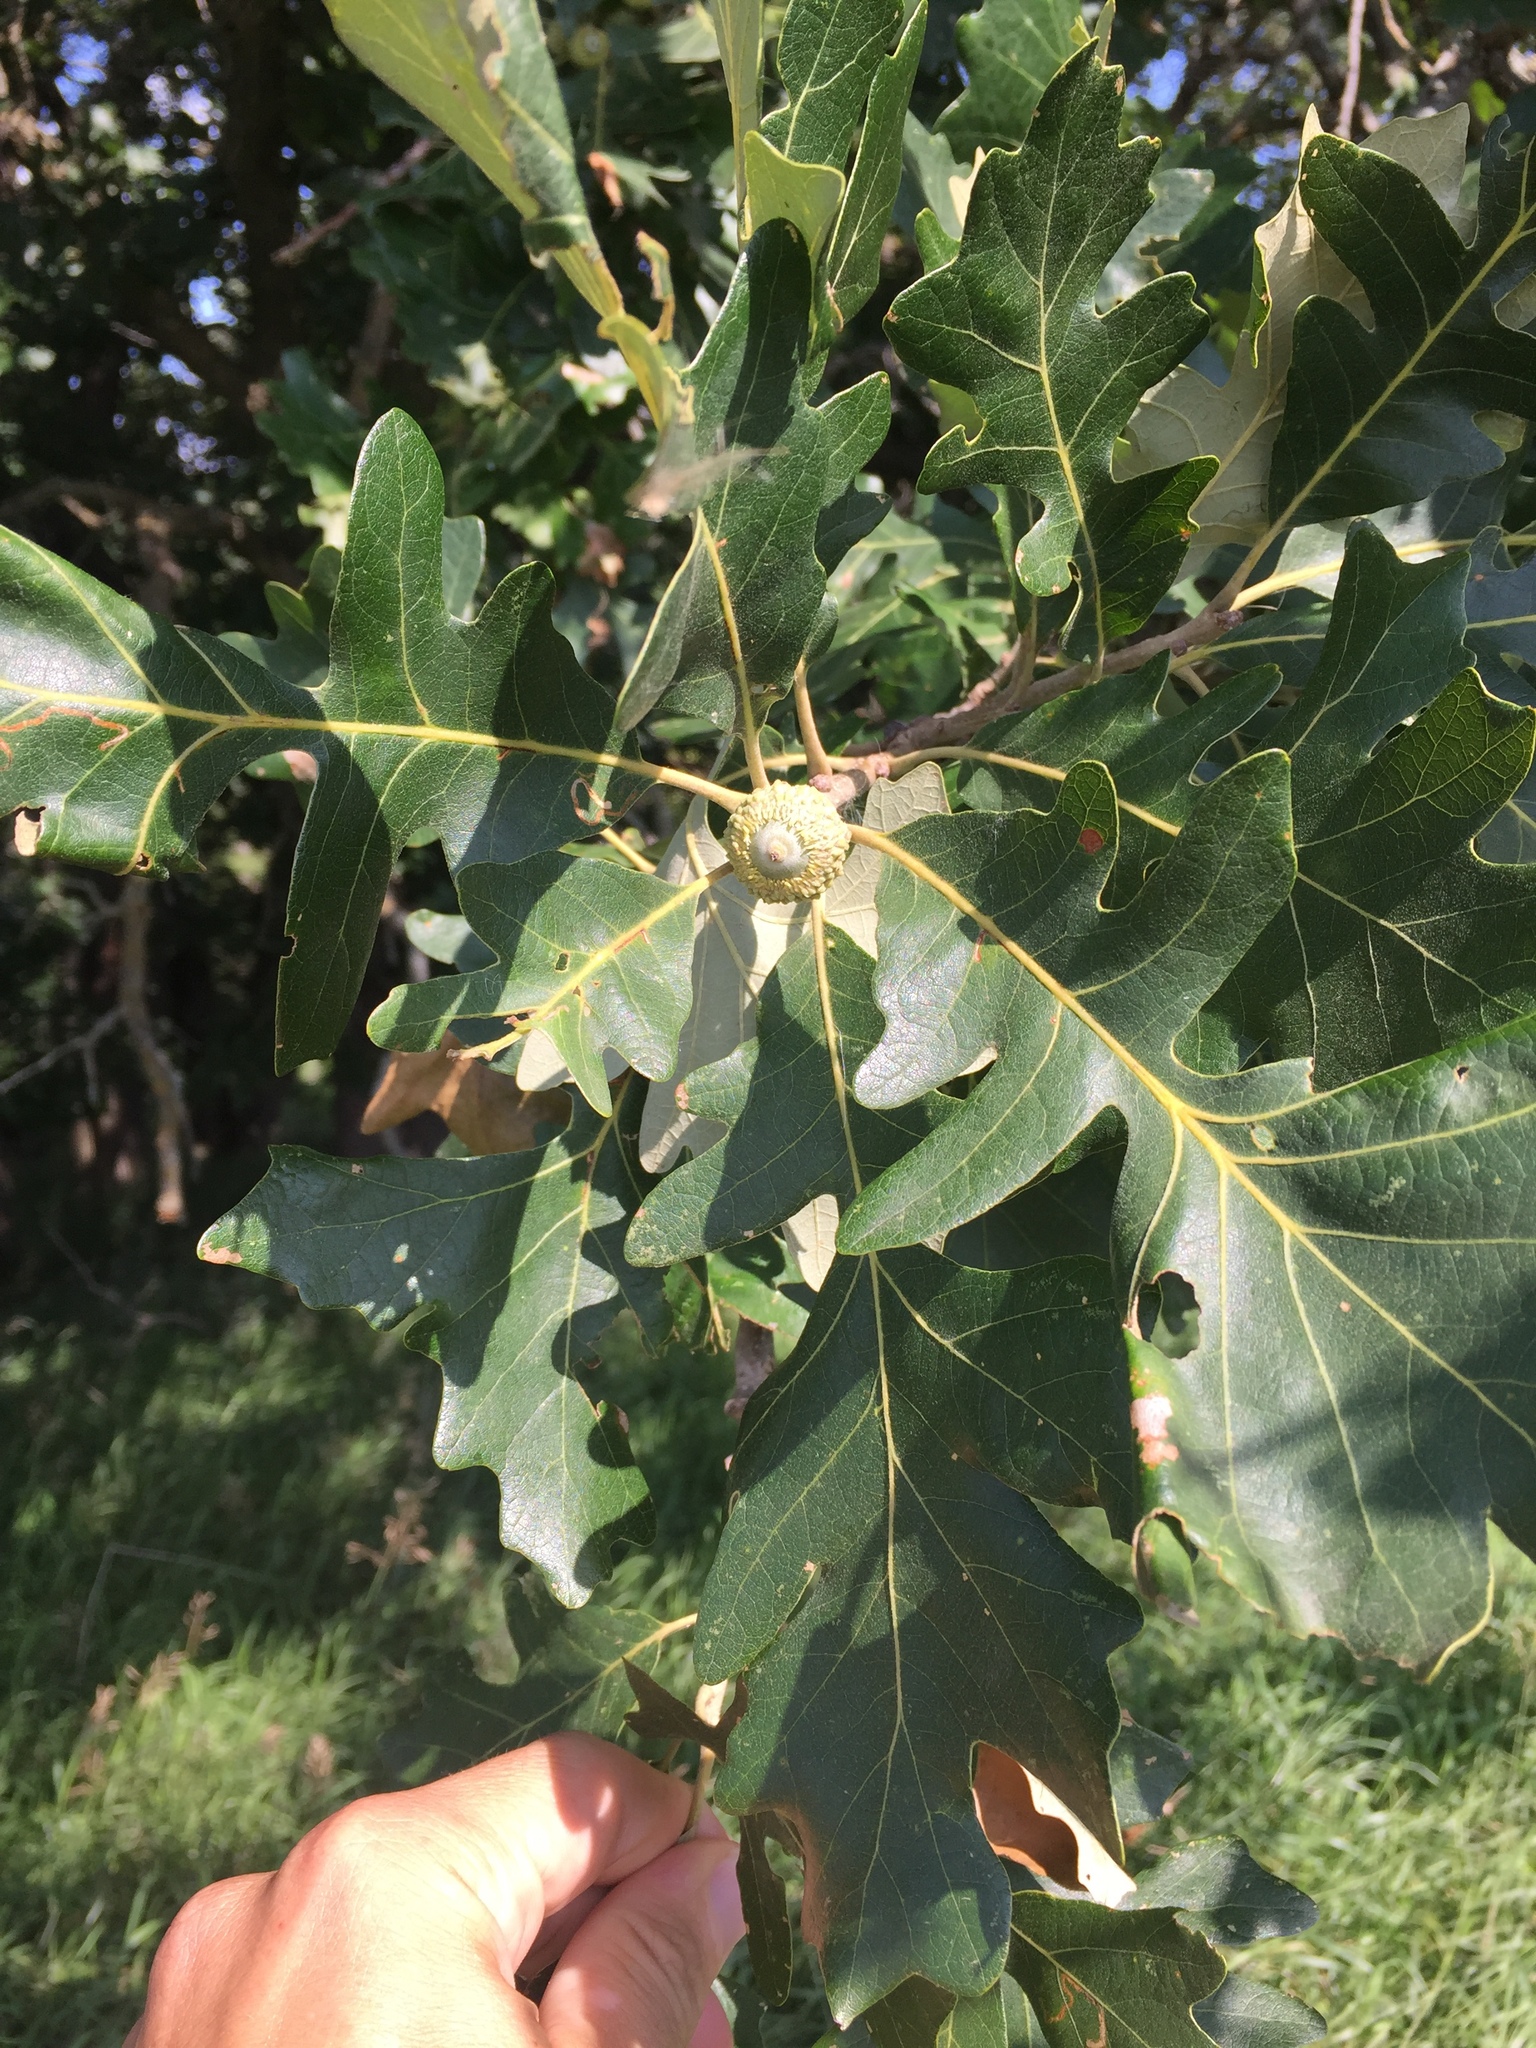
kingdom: Plantae
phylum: Tracheophyta
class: Magnoliopsida
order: Fagales
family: Fagaceae
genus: Quercus
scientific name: Quercus macrocarpa
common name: Bur oak
